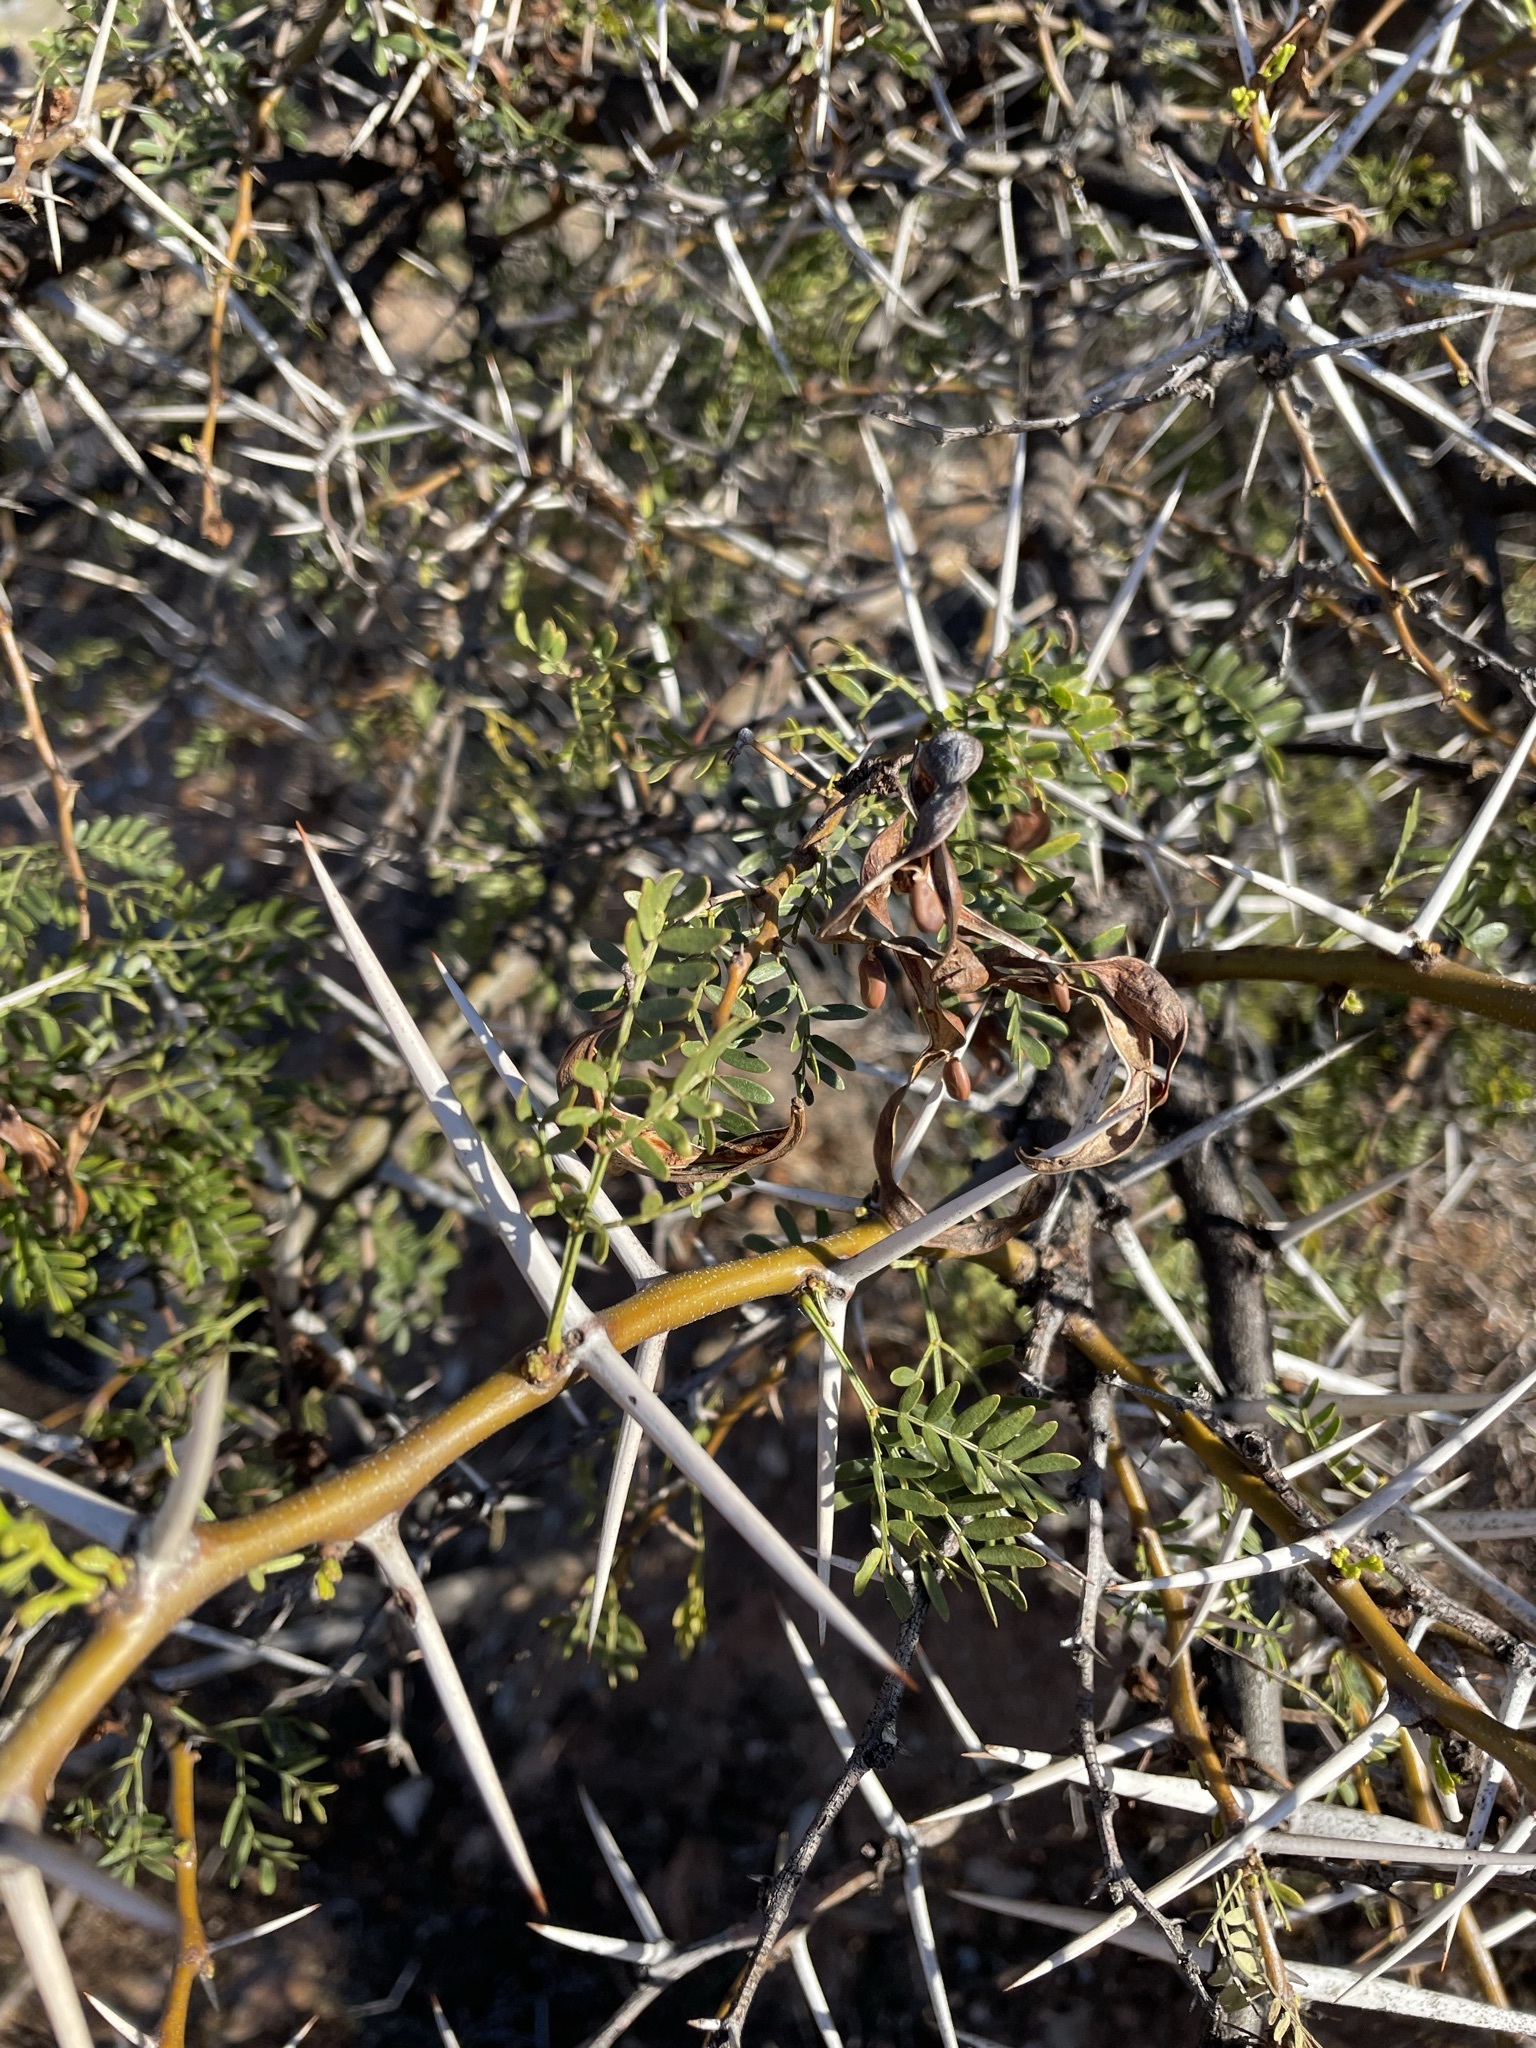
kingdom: Plantae
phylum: Tracheophyta
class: Magnoliopsida
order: Fabales
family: Fabaceae
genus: Vachellia
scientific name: Vachellia karroo
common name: Sweet thorn
